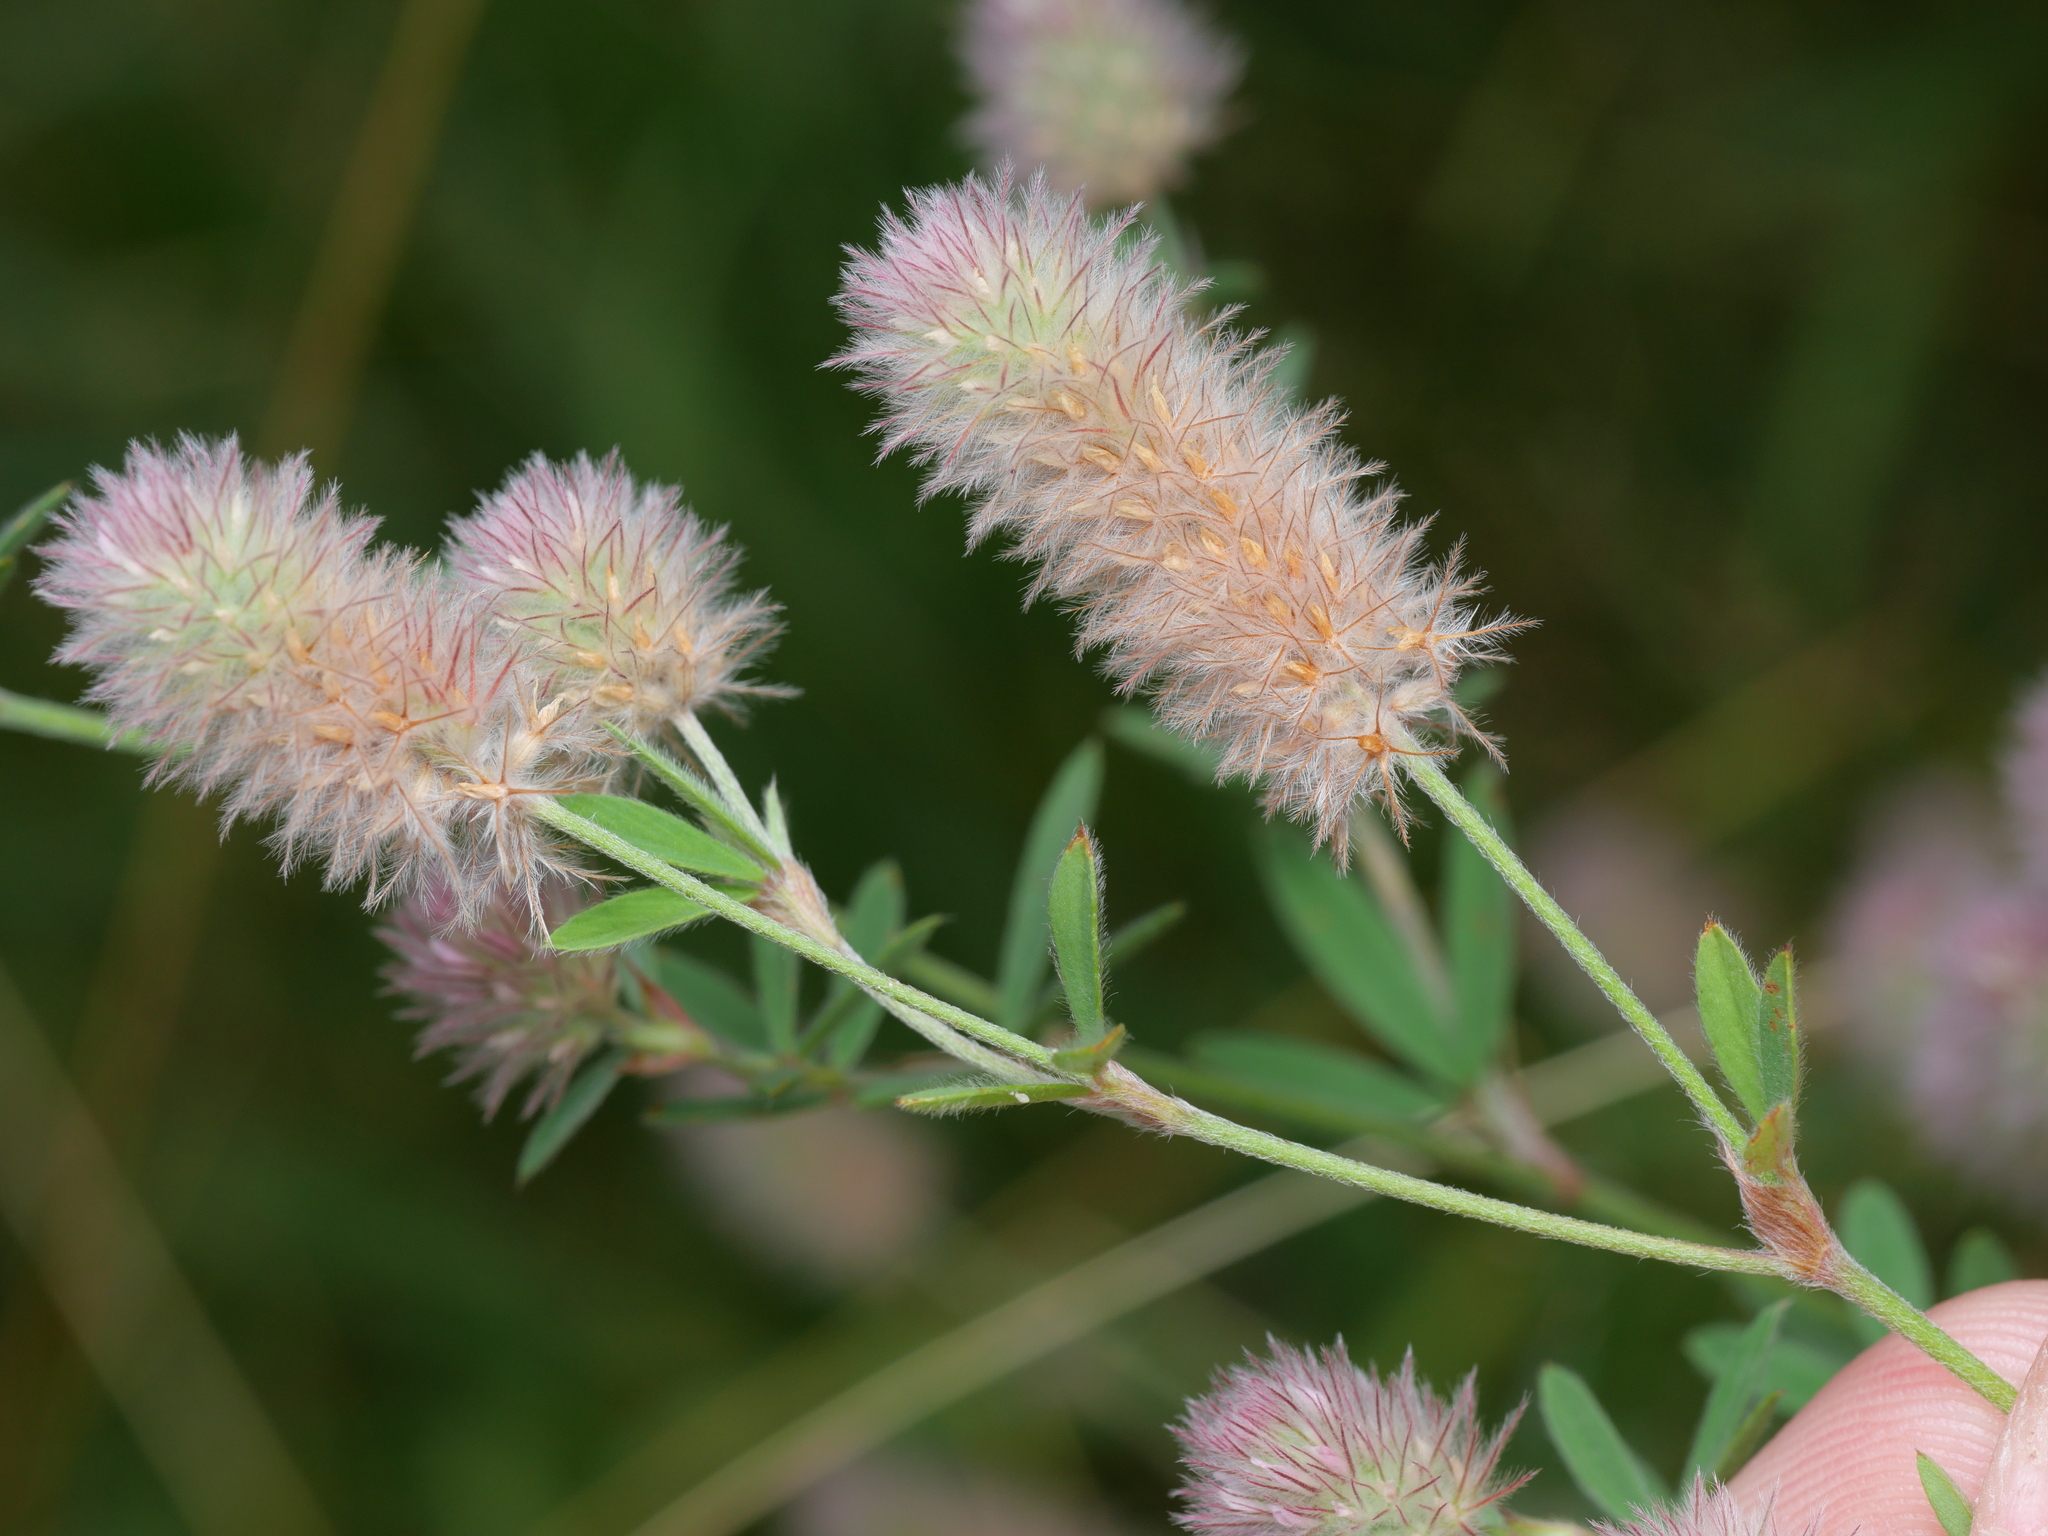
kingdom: Plantae
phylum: Tracheophyta
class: Magnoliopsida
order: Fabales
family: Fabaceae
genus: Trifolium
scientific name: Trifolium arvense
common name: Hare's-foot clover
